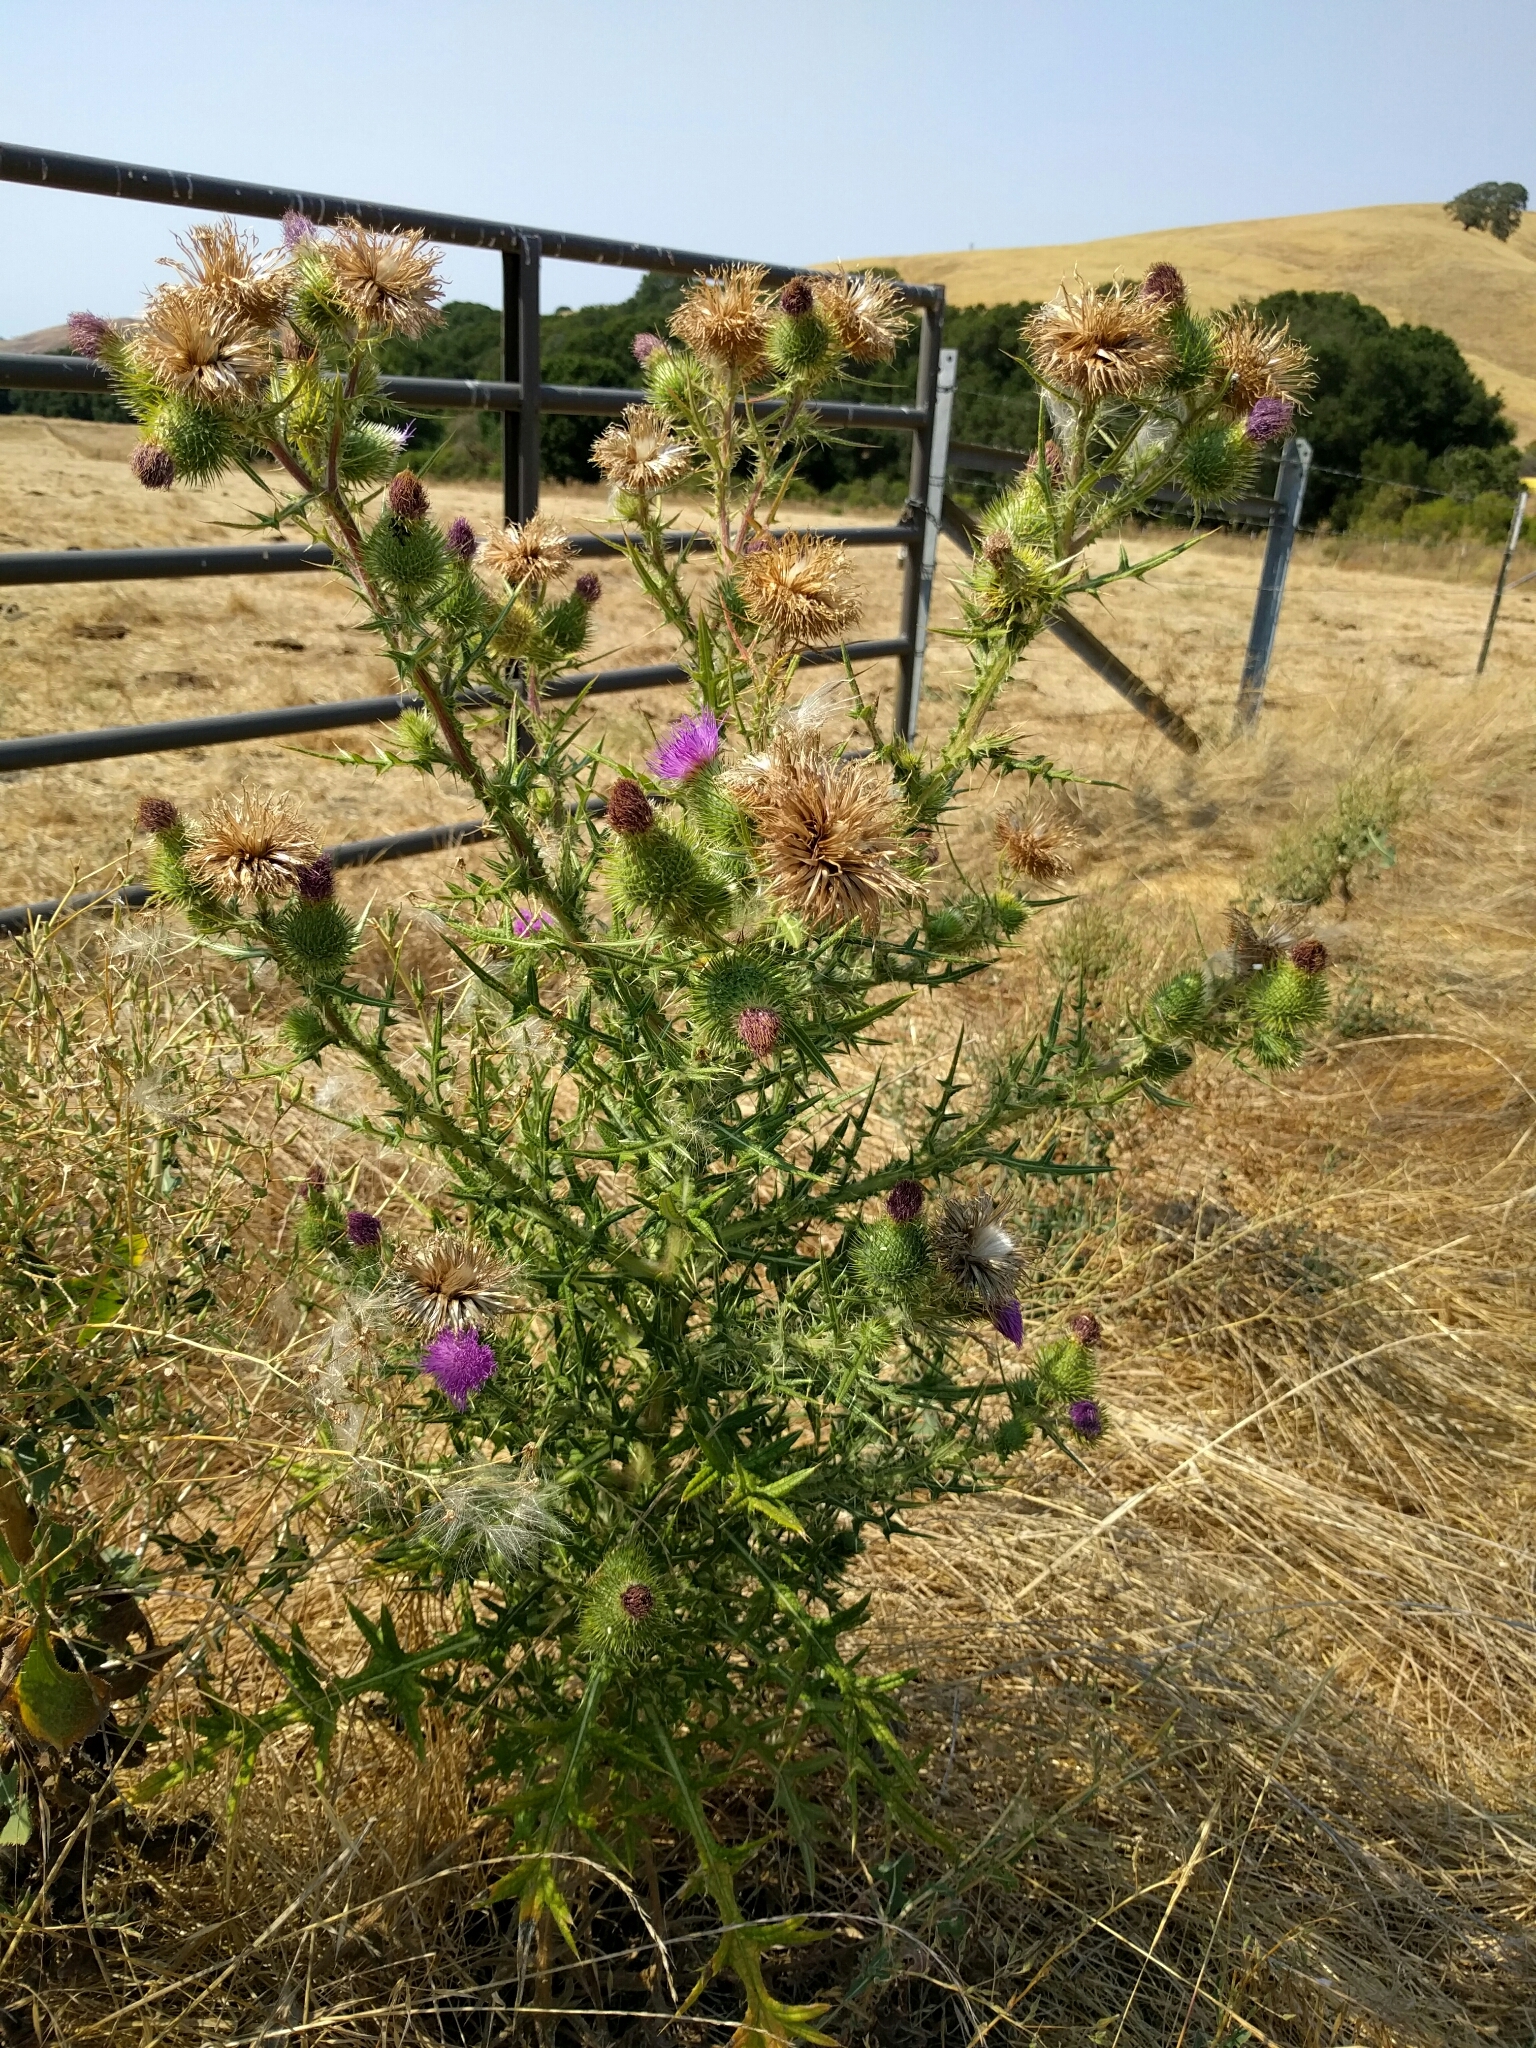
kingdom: Plantae
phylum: Tracheophyta
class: Magnoliopsida
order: Asterales
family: Asteraceae
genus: Cirsium
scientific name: Cirsium vulgare
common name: Bull thistle
